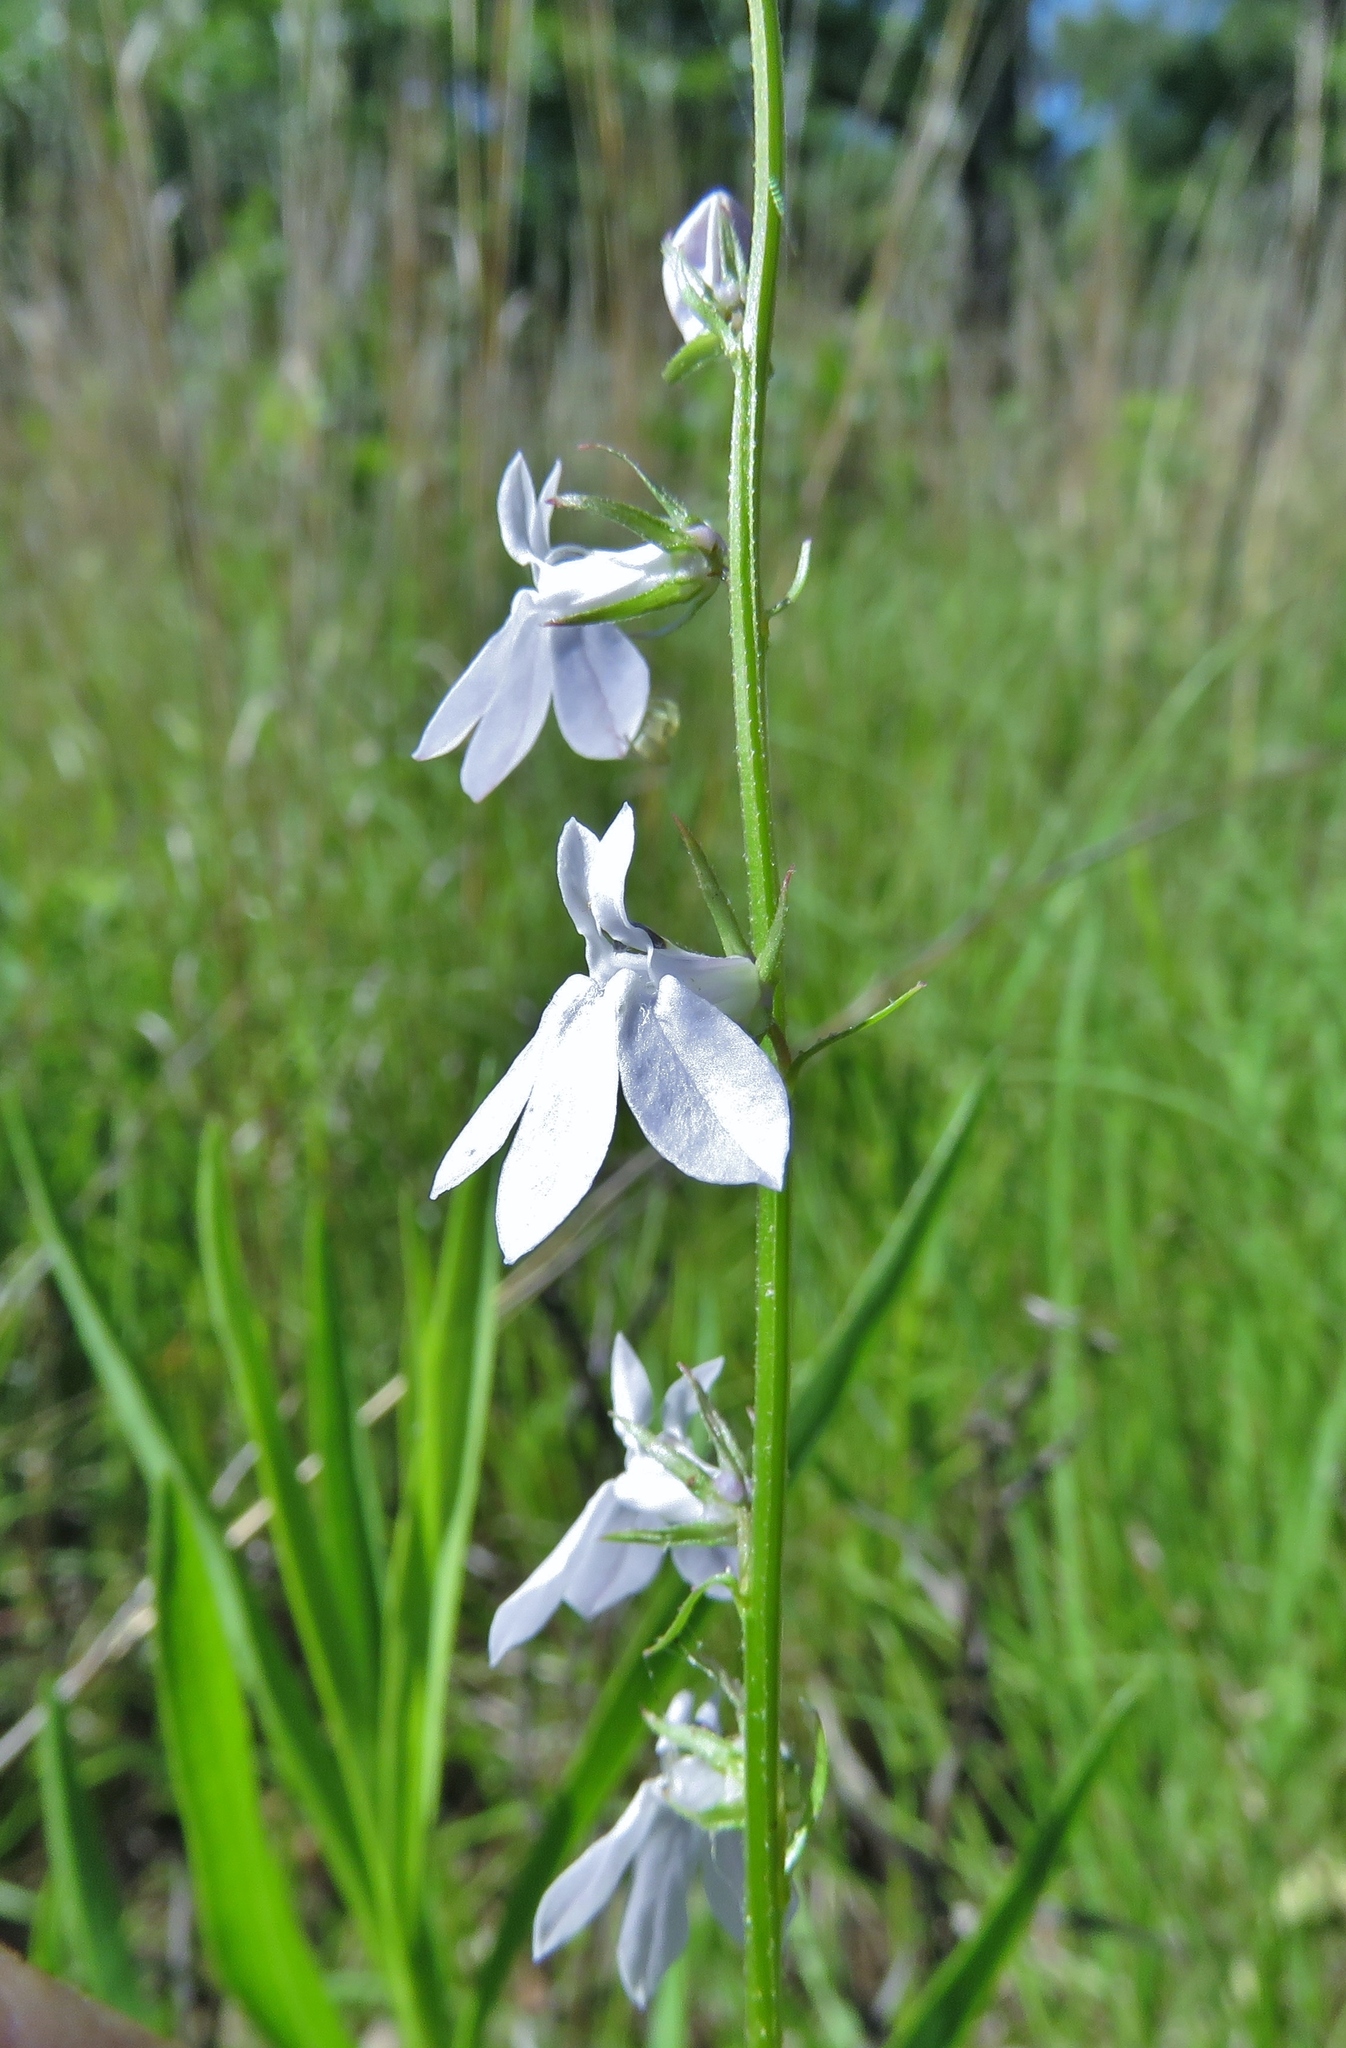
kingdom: Plantae
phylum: Tracheophyta
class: Magnoliopsida
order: Asterales
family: Campanulaceae
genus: Lobelia
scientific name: Lobelia appendiculata
